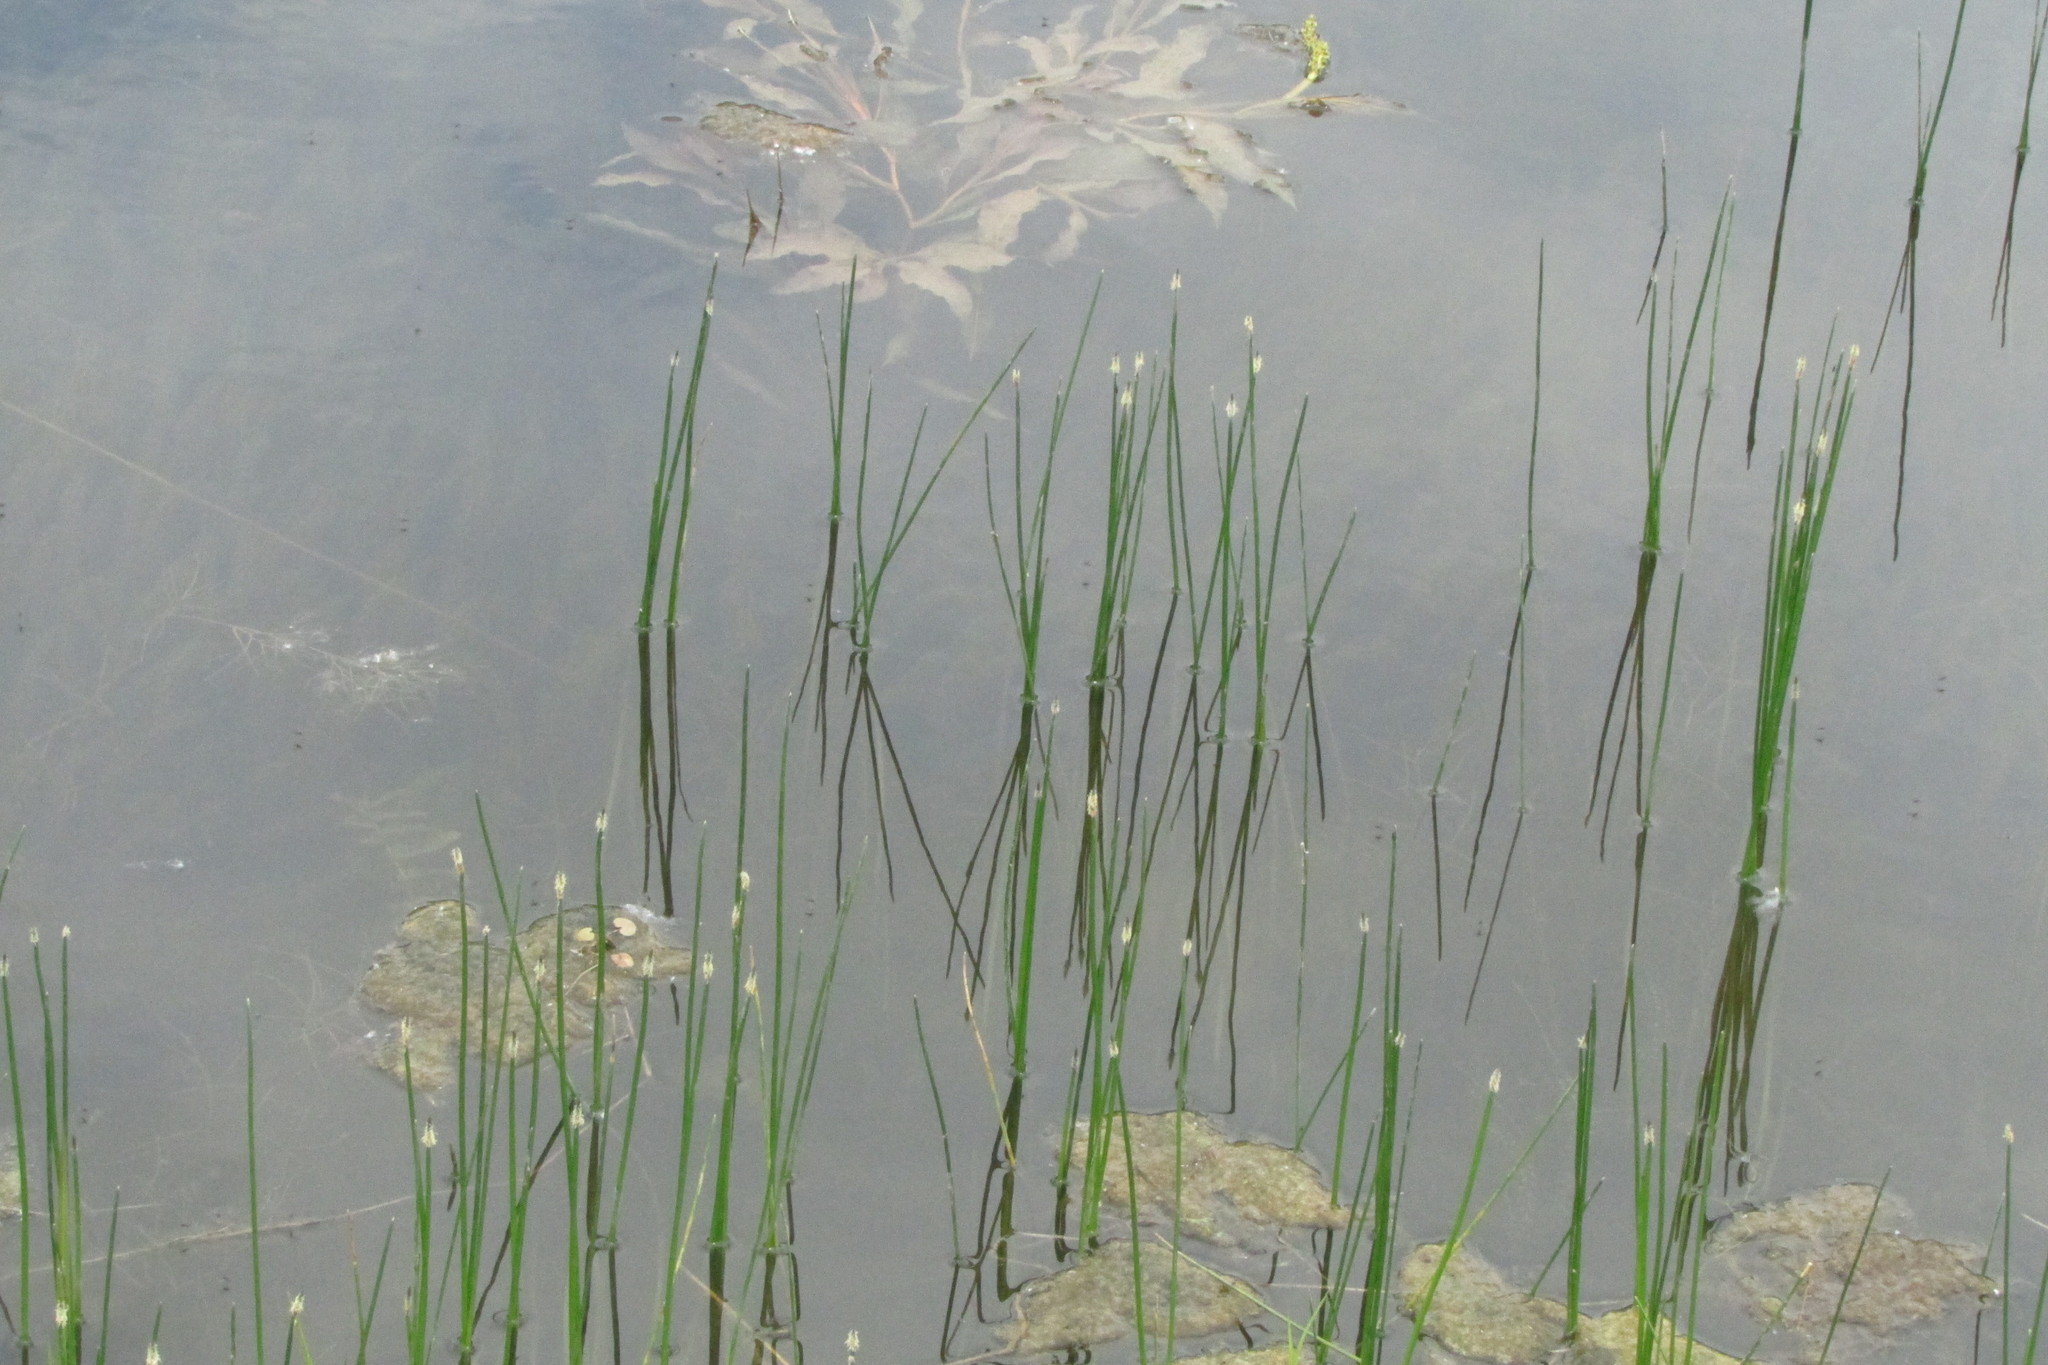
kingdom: Plantae
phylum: Tracheophyta
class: Liliopsida
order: Poales
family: Cyperaceae
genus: Eleocharis
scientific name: Eleocharis palustris
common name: Common spike-rush
